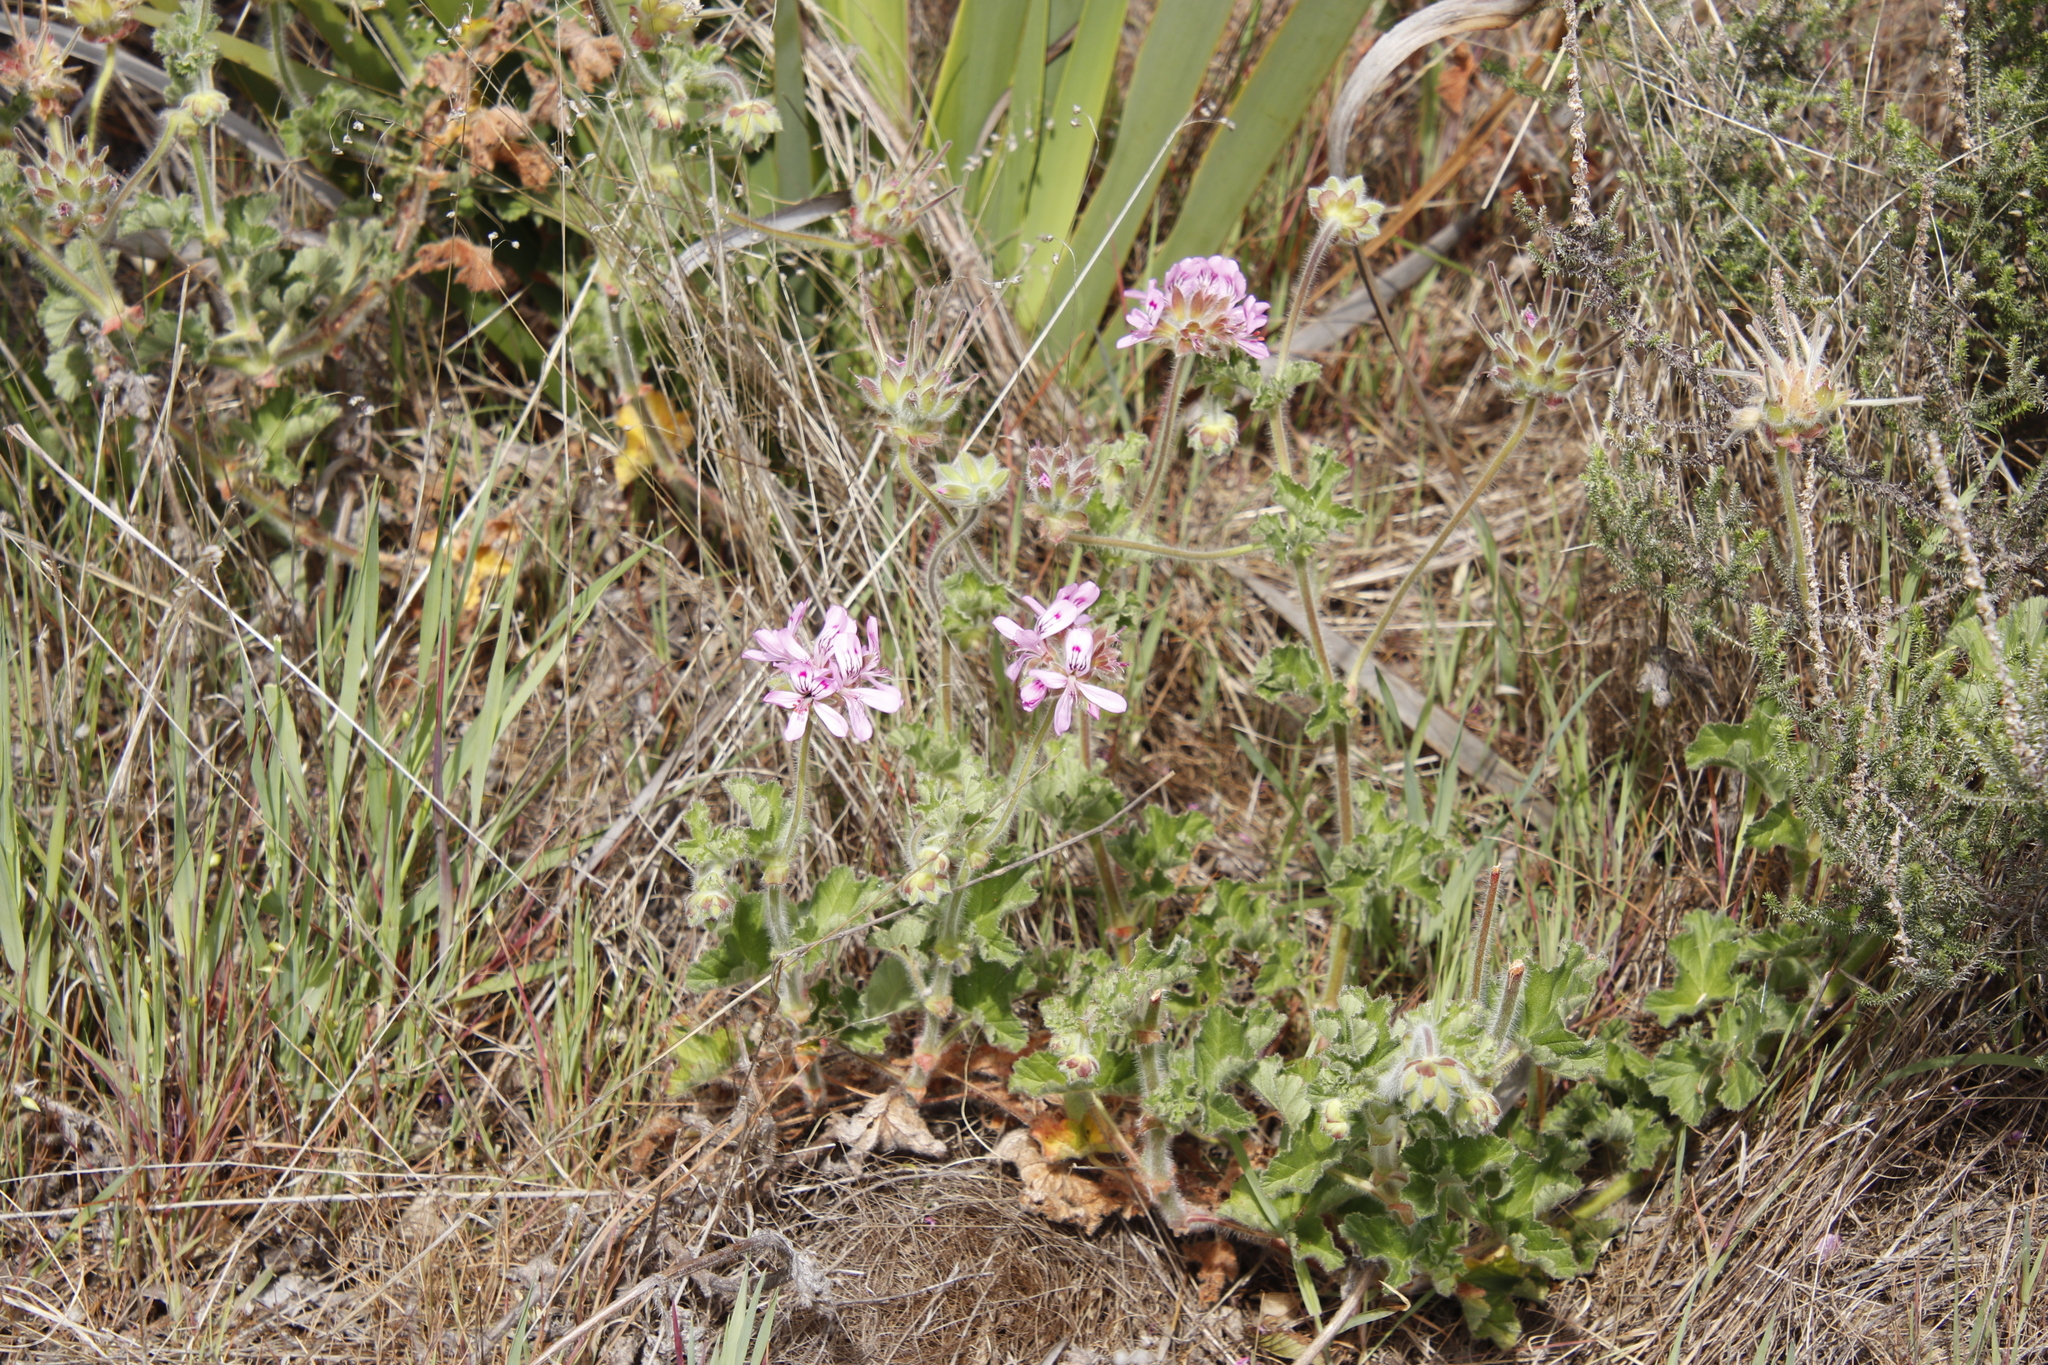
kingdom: Plantae
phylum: Tracheophyta
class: Magnoliopsida
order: Geraniales
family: Geraniaceae
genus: Pelargonium
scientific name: Pelargonium capitatum
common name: Rose scented geranium
